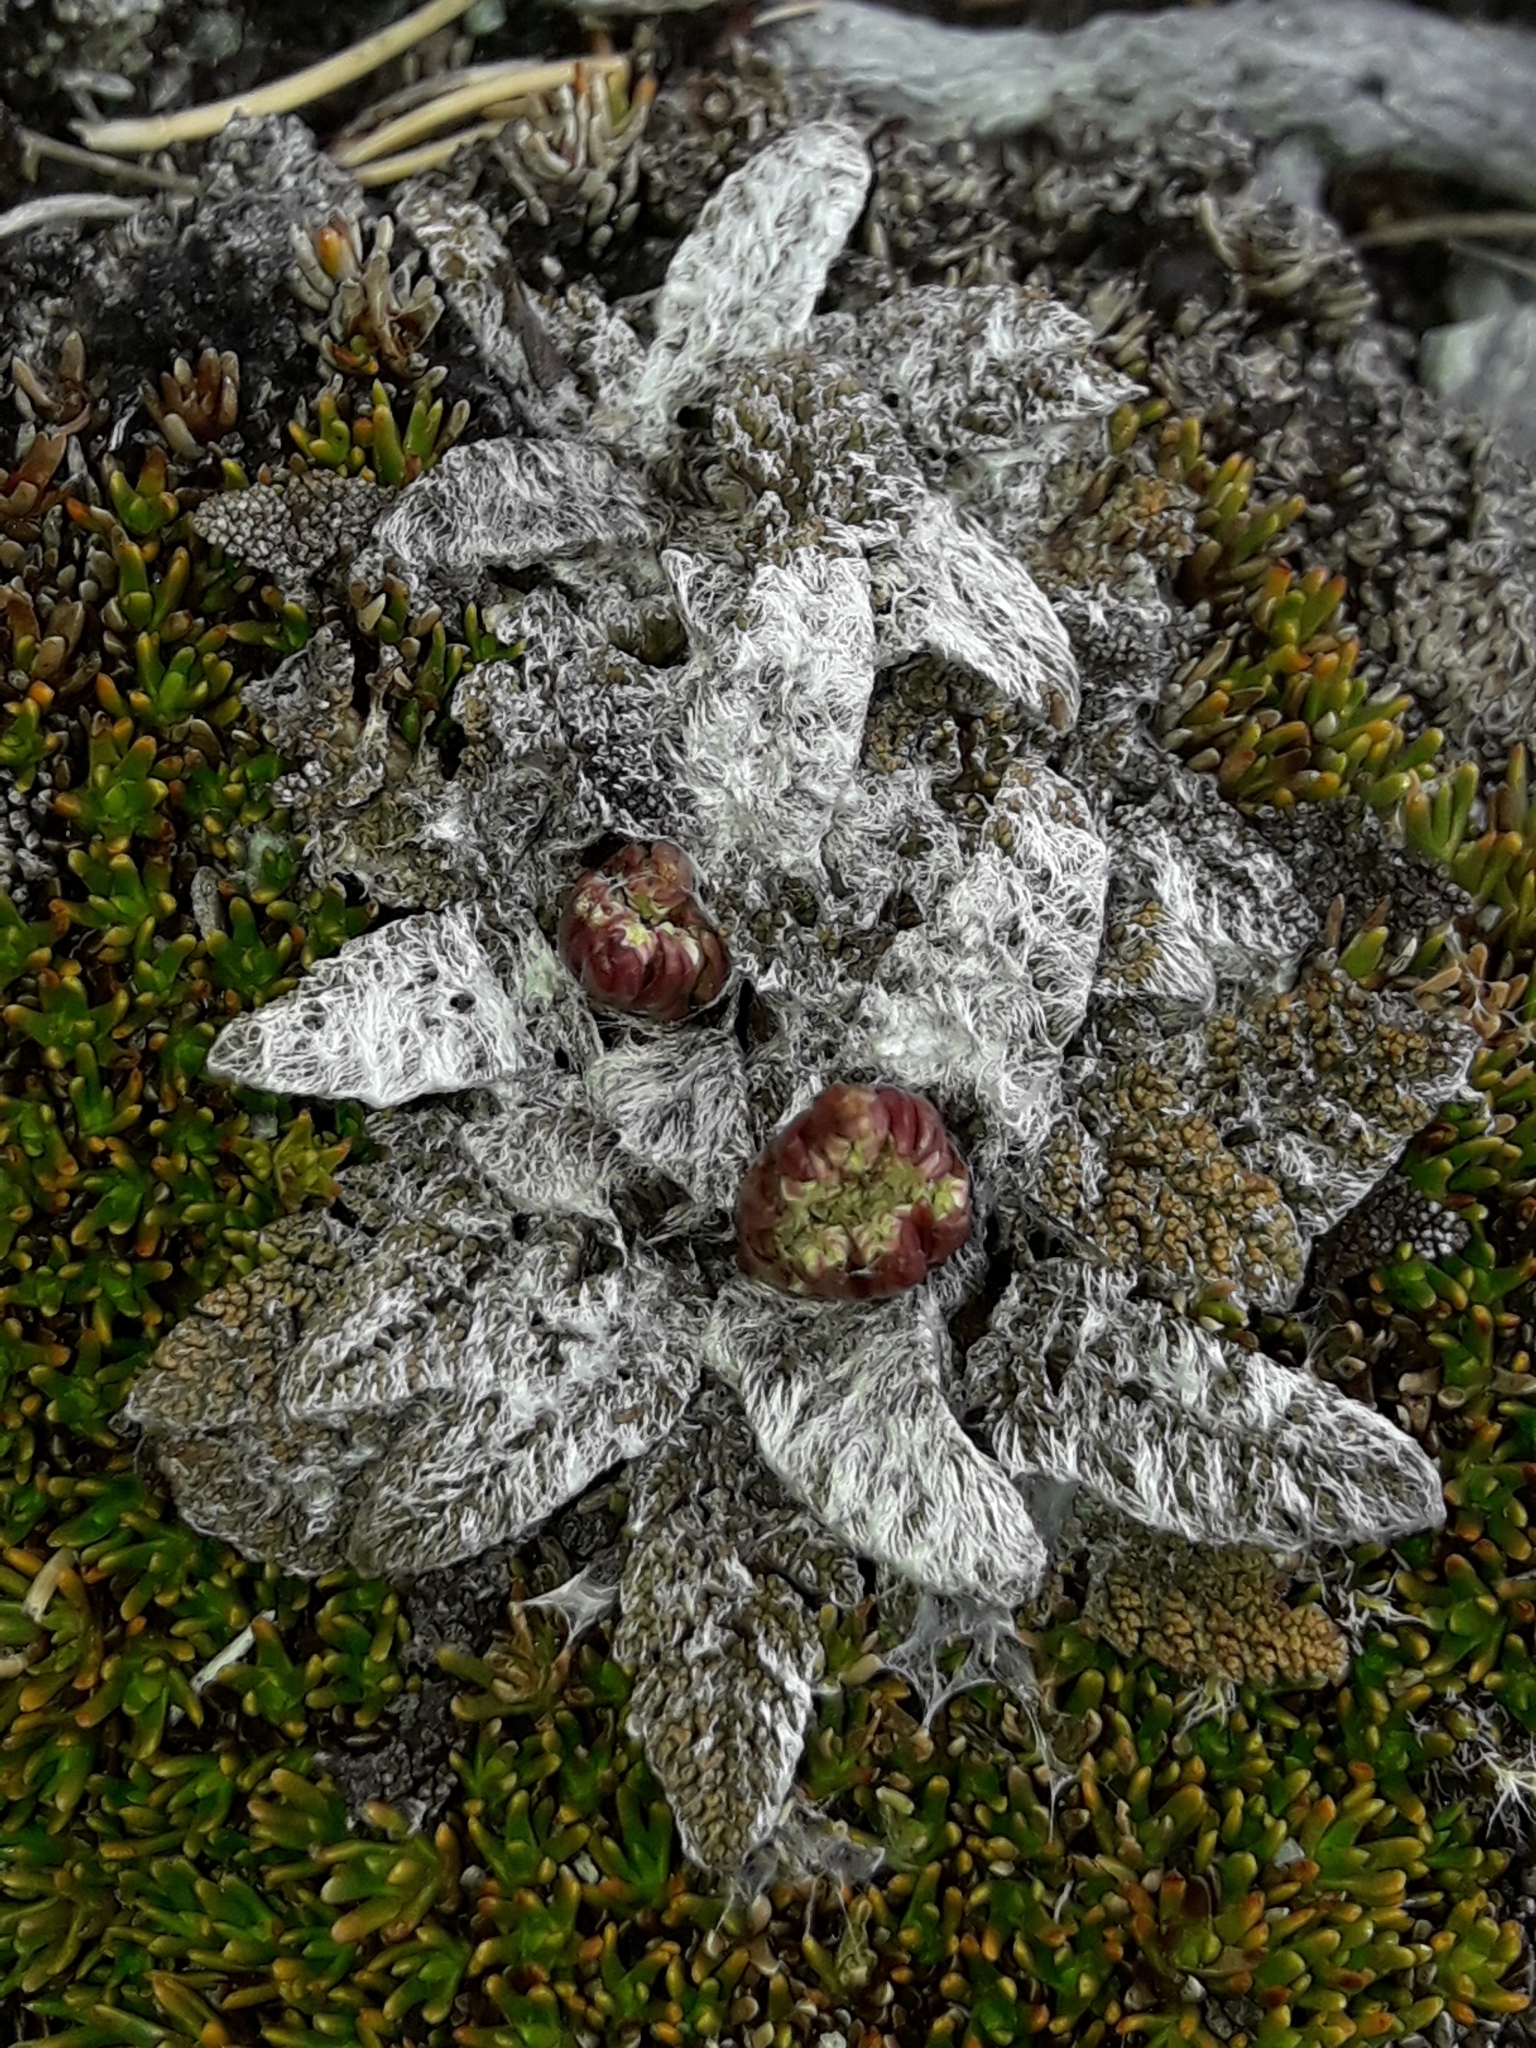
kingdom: Plantae
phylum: Tracheophyta
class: Magnoliopsida
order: Apiales
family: Apiaceae
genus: Anisotome
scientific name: Anisotome lanuginosa
